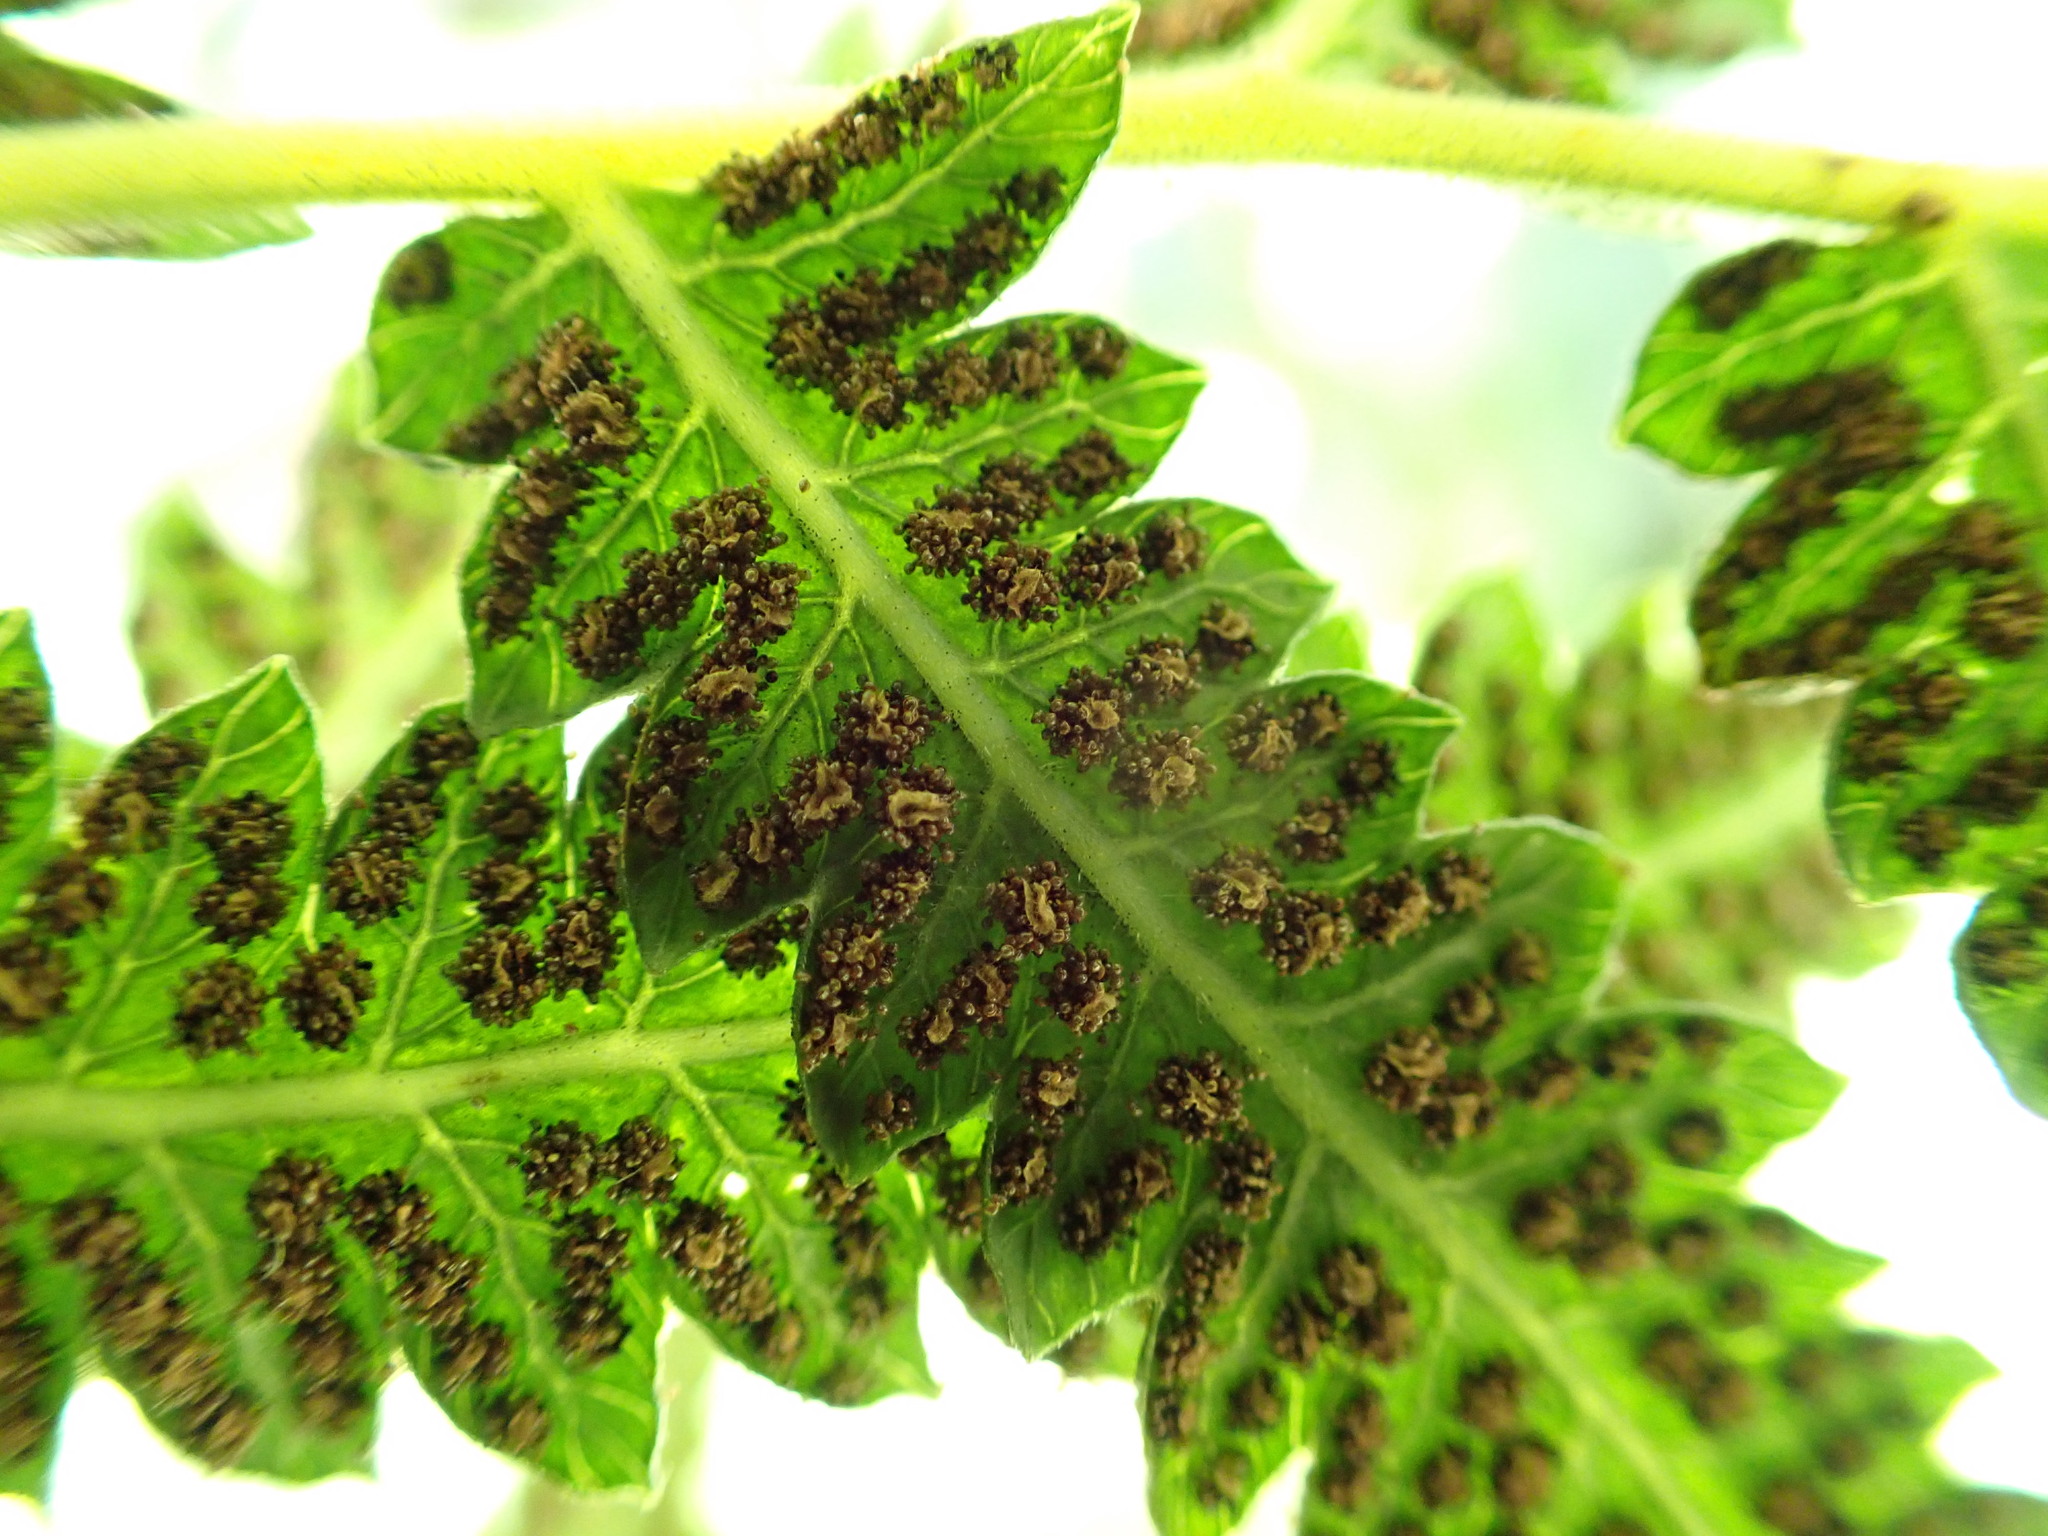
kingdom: Plantae
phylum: Tracheophyta
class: Polypodiopsida
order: Polypodiales
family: Thelypteridaceae
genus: Christella
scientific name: Christella acuminata
